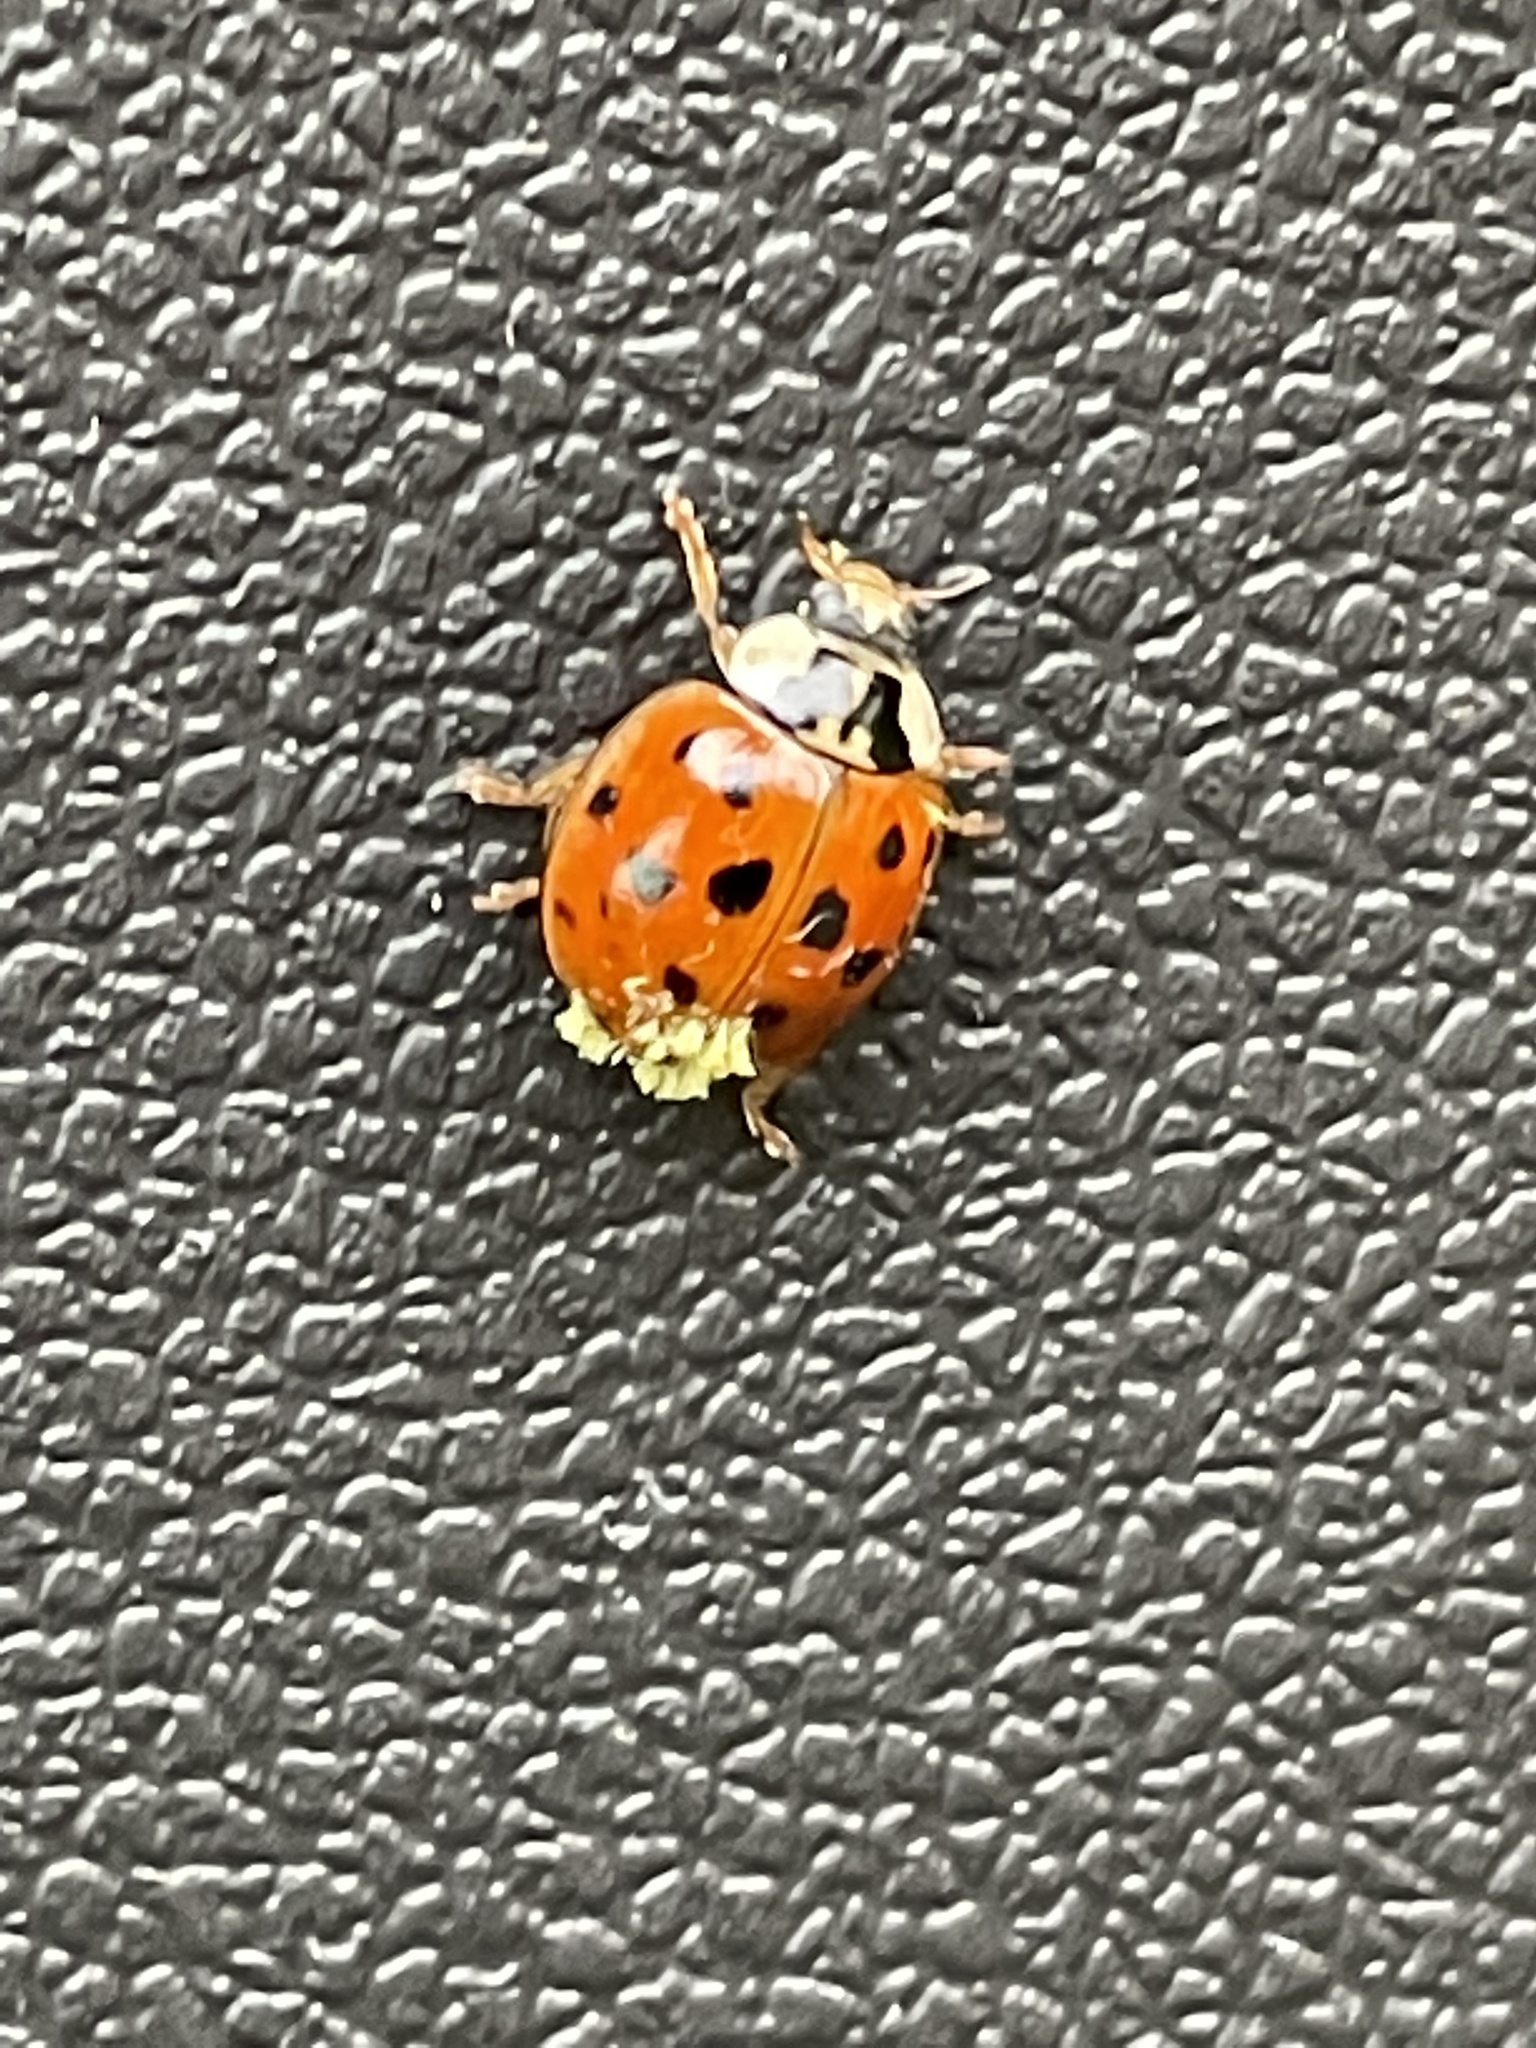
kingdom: Fungi
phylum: Ascomycota
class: Laboulbeniomycetes
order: Laboulbeniales
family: Laboulbeniaceae
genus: Hesperomyces
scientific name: Hesperomyces harmoniae
